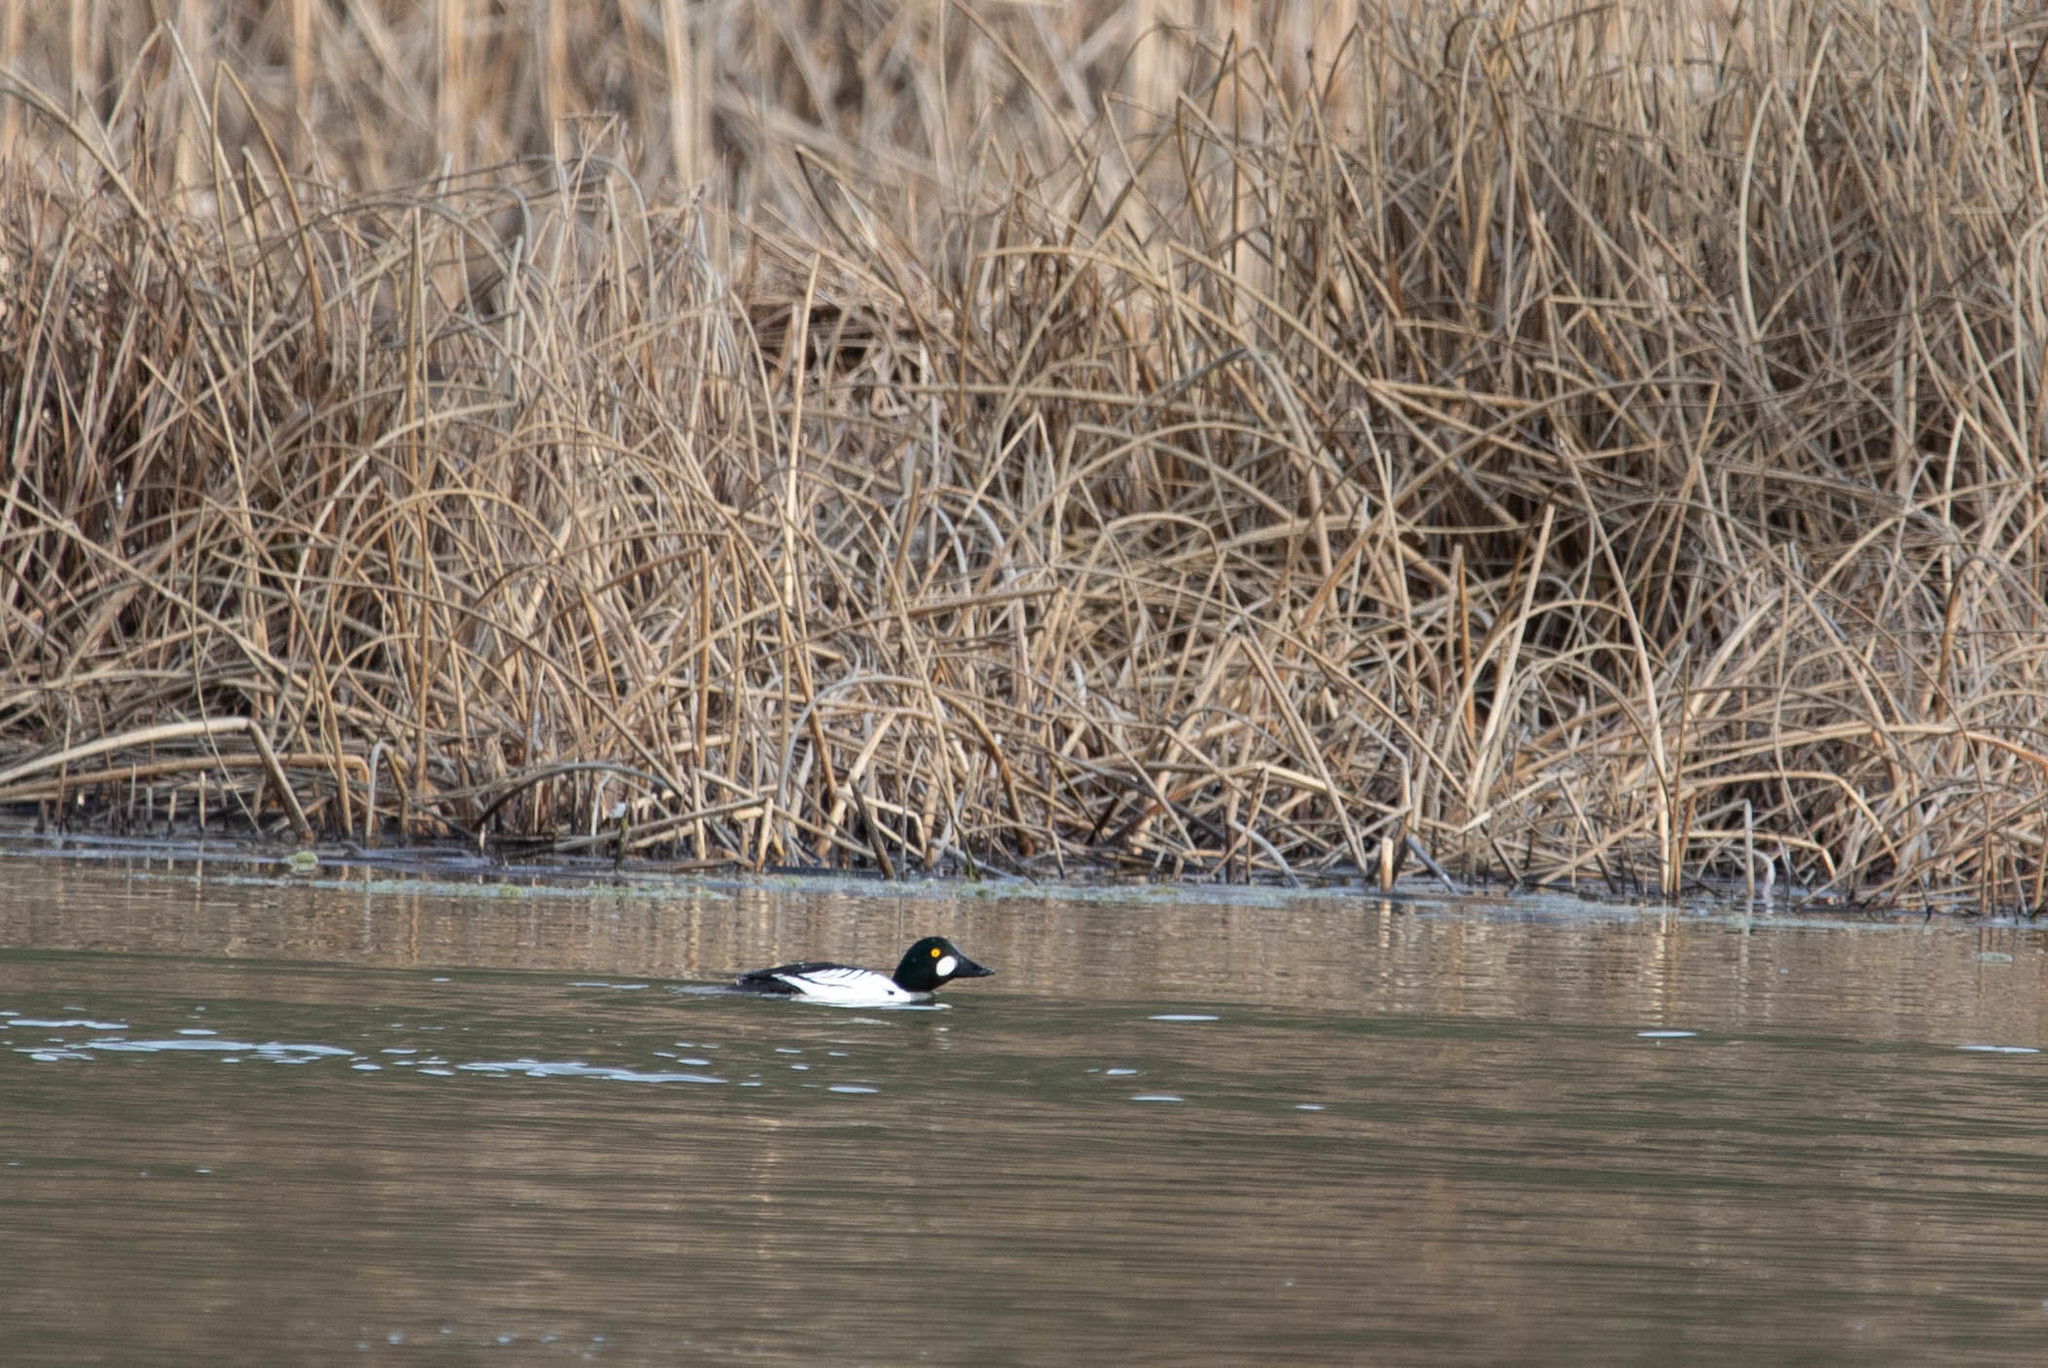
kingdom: Animalia
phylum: Chordata
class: Aves
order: Anseriformes
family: Anatidae
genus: Bucephala
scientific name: Bucephala clangula
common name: Common goldeneye
